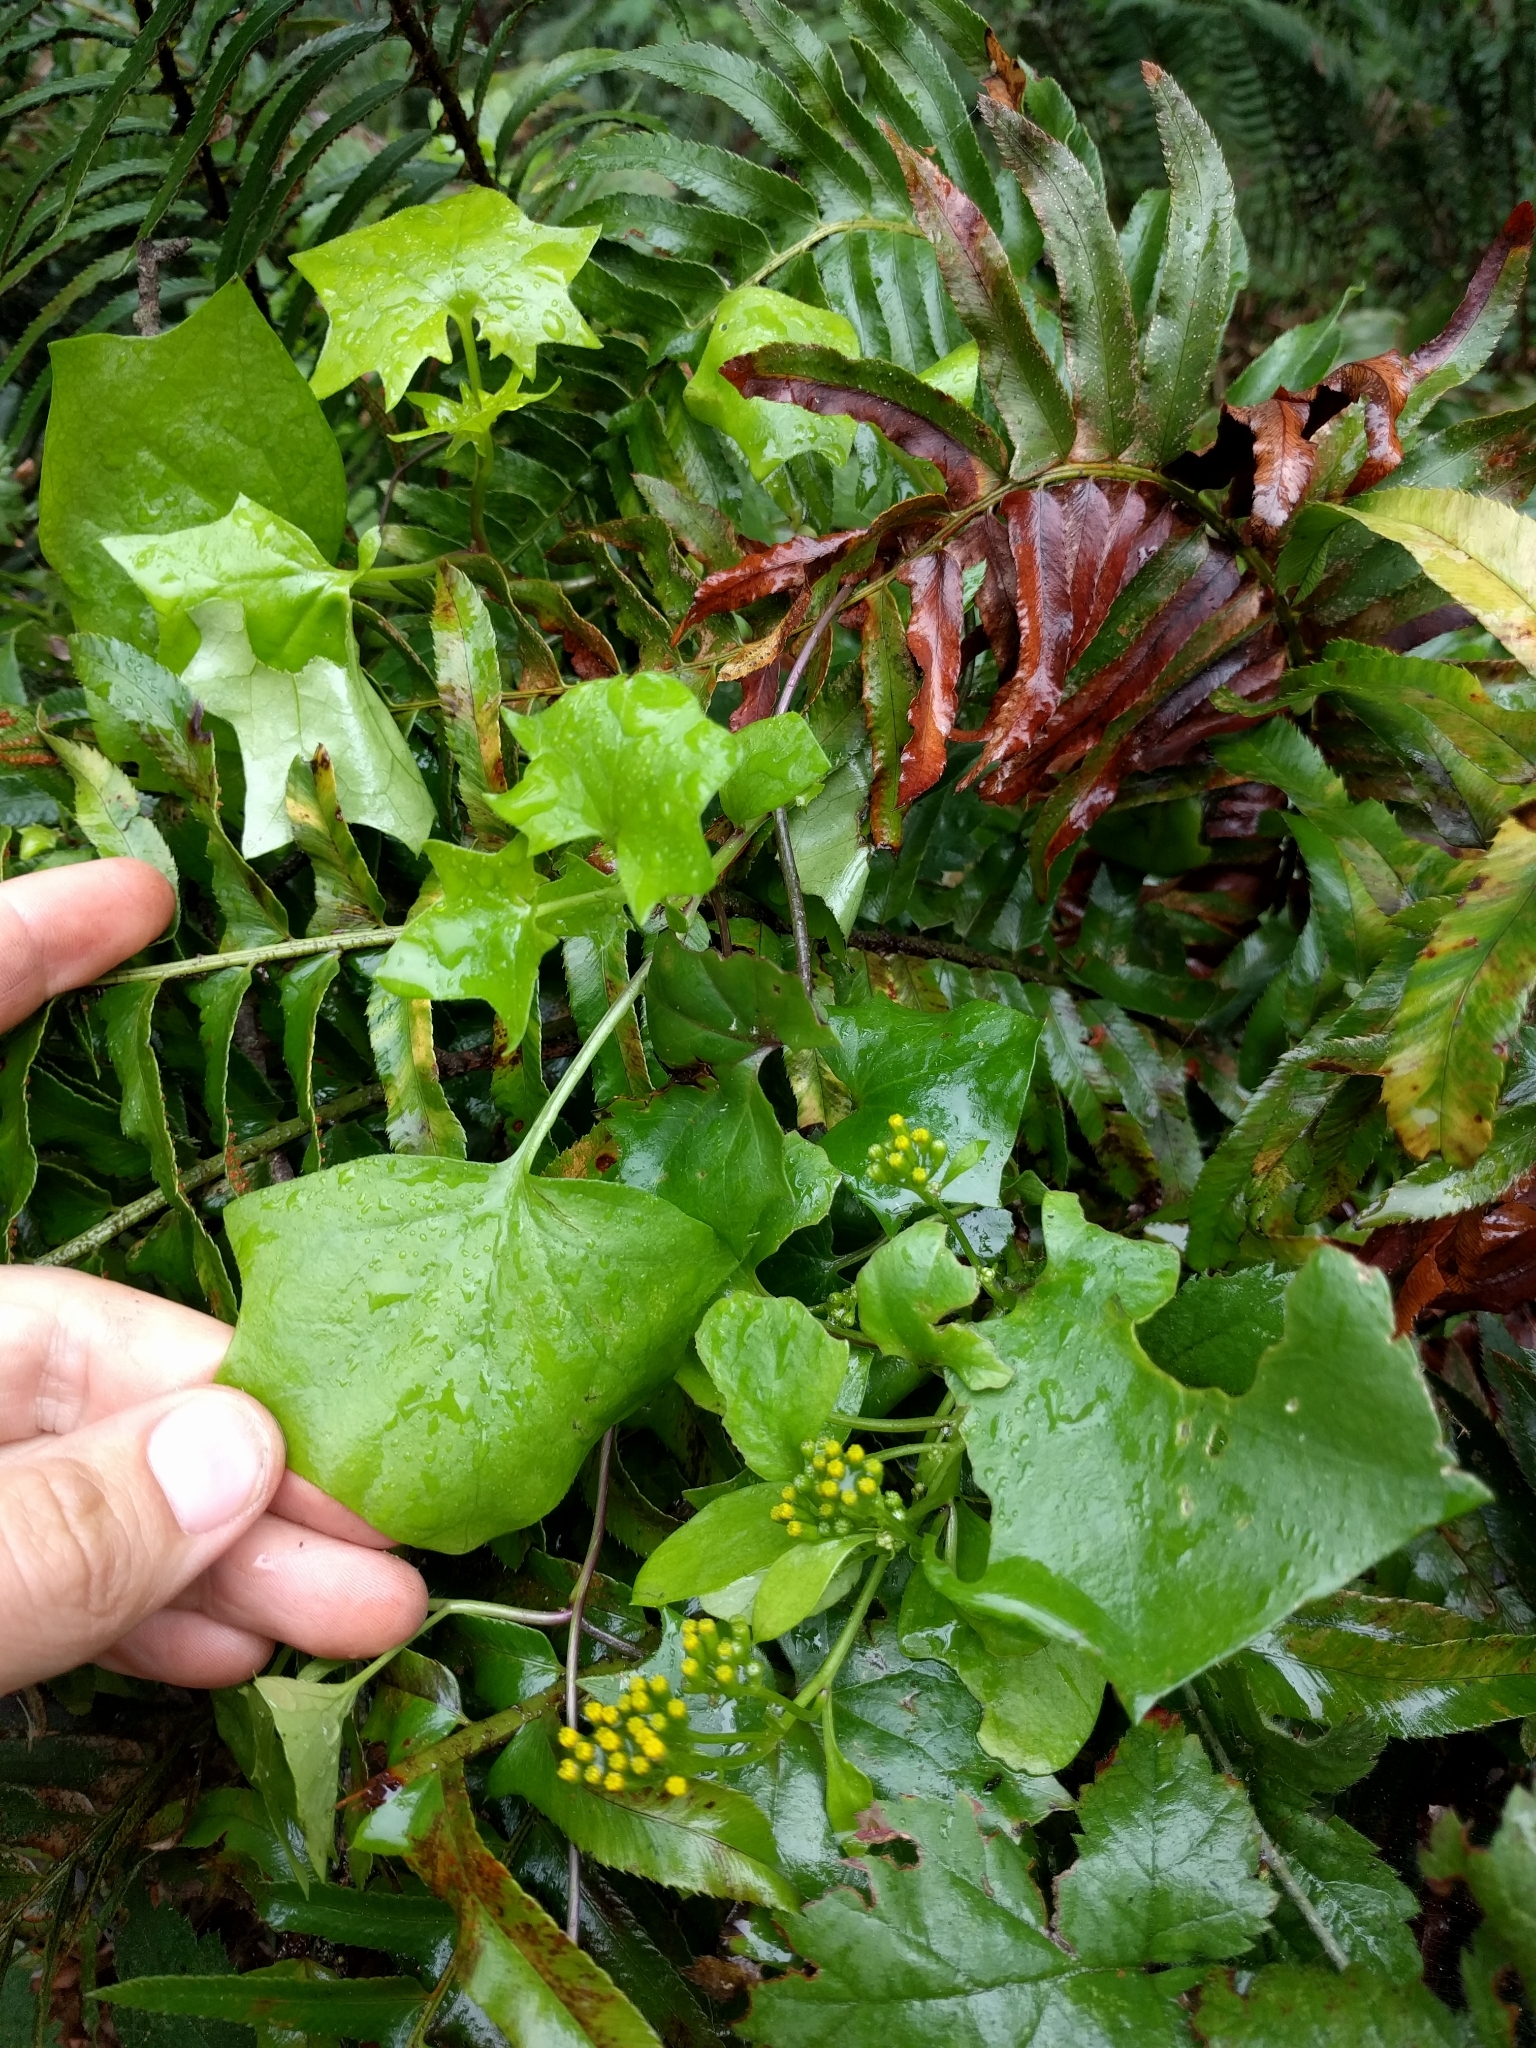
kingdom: Plantae
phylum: Tracheophyta
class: Magnoliopsida
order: Asterales
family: Asteraceae
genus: Delairea
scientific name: Delairea odorata
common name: Cape-ivy
